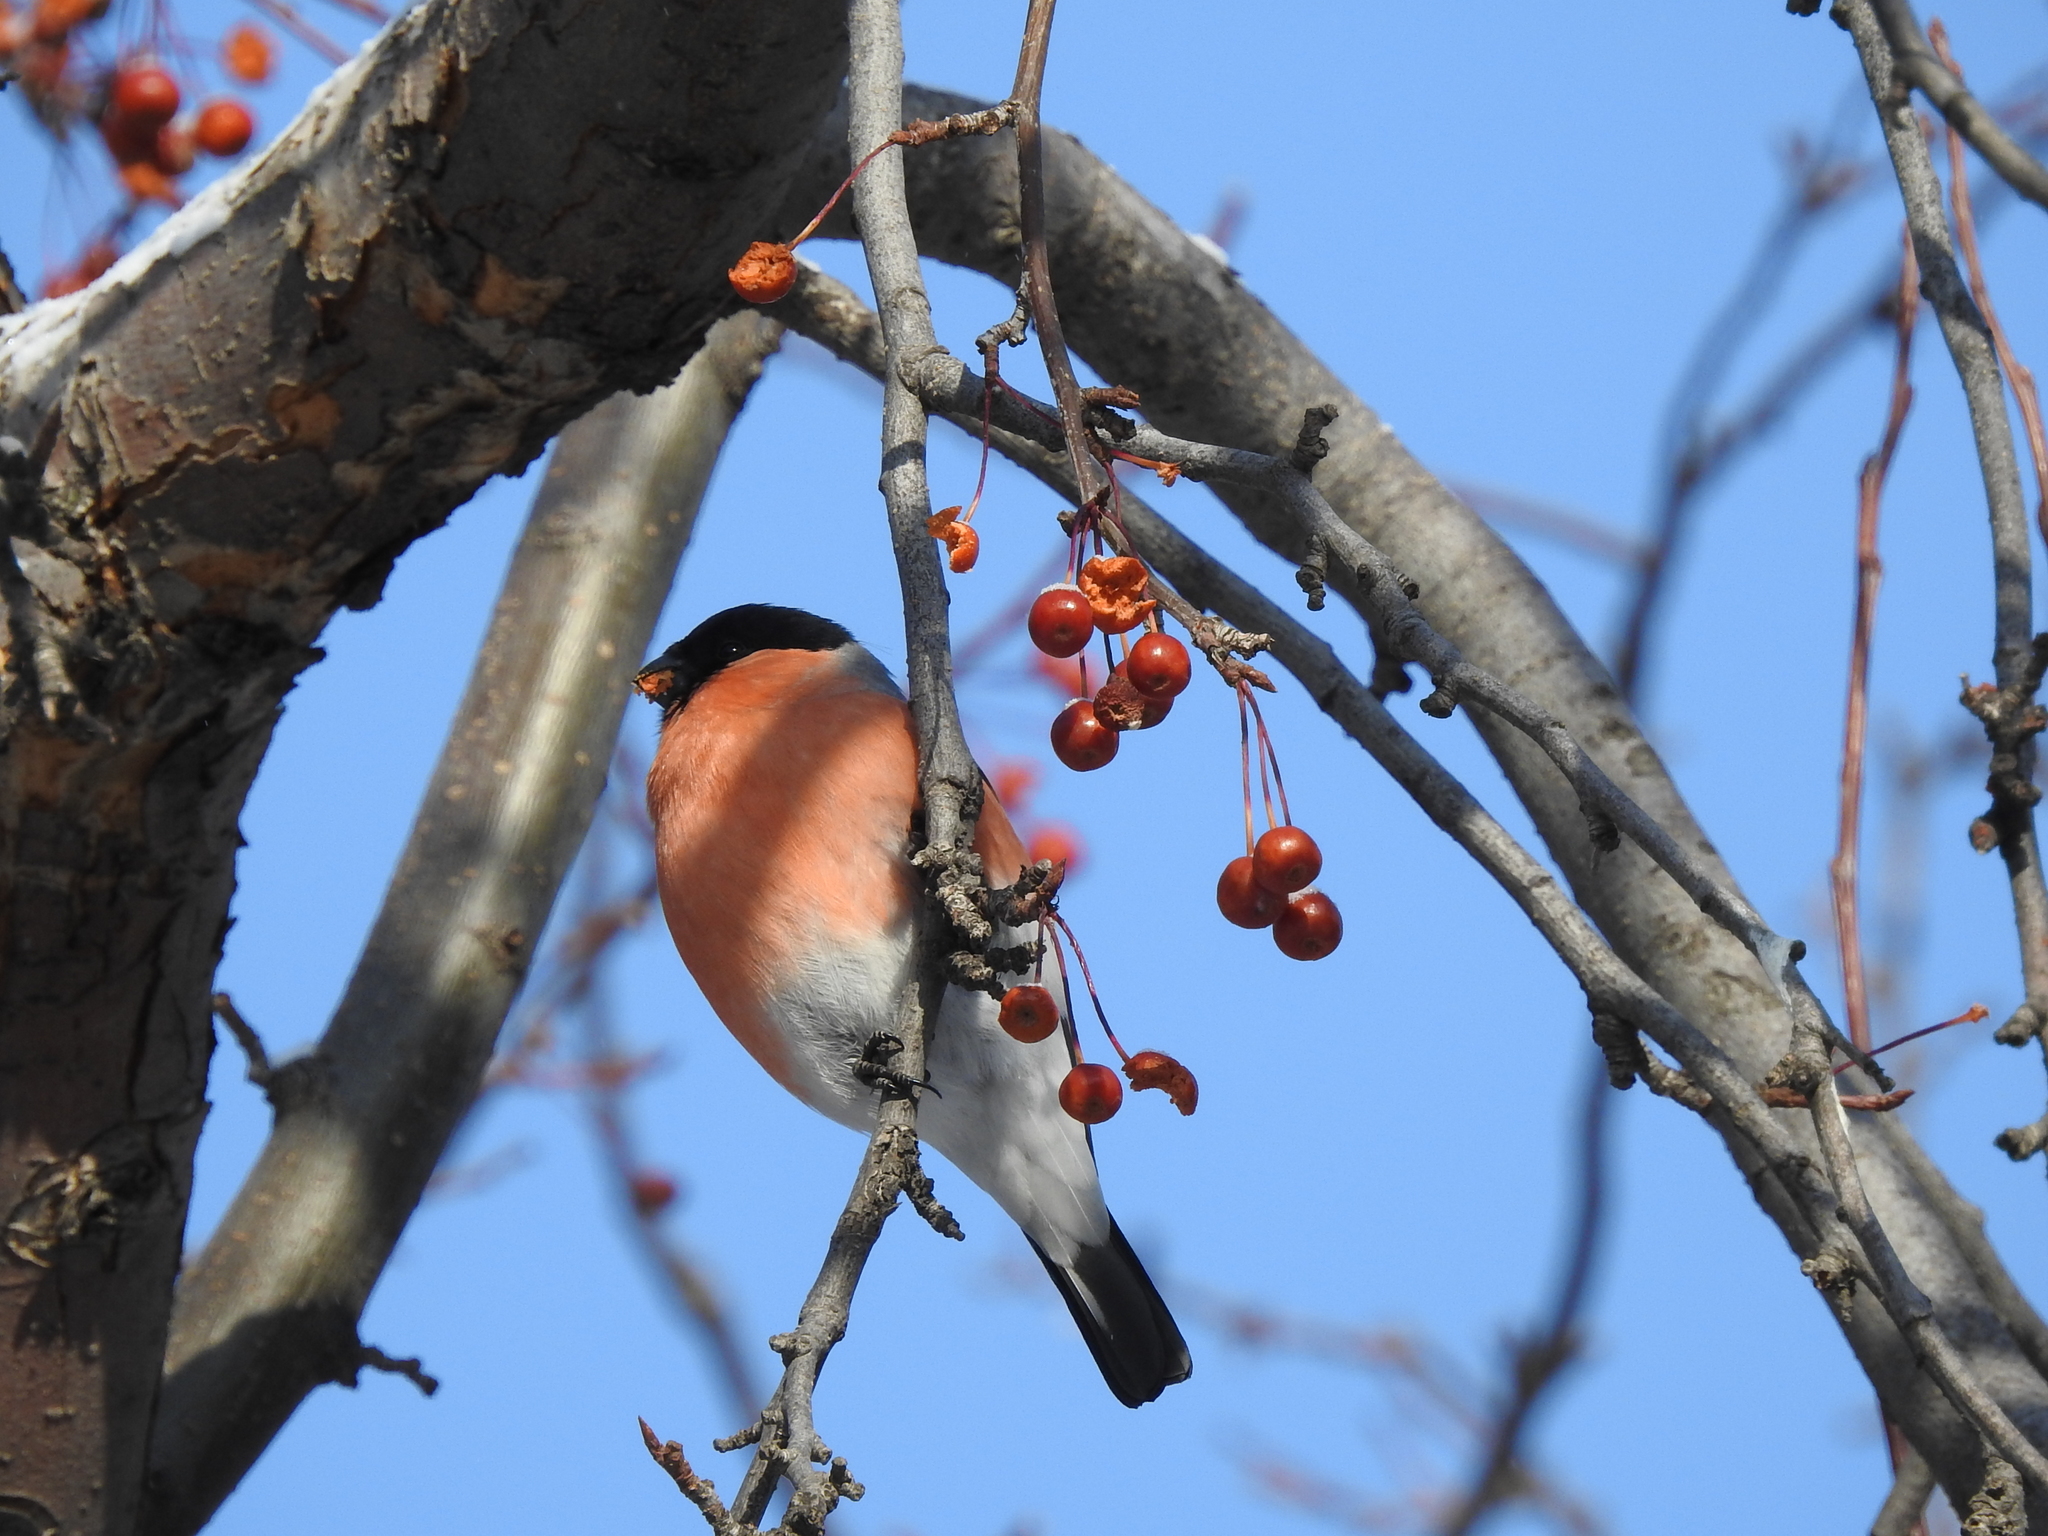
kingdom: Animalia
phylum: Chordata
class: Aves
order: Passeriformes
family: Fringillidae
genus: Pyrrhula
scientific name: Pyrrhula pyrrhula
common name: Eurasian bullfinch
